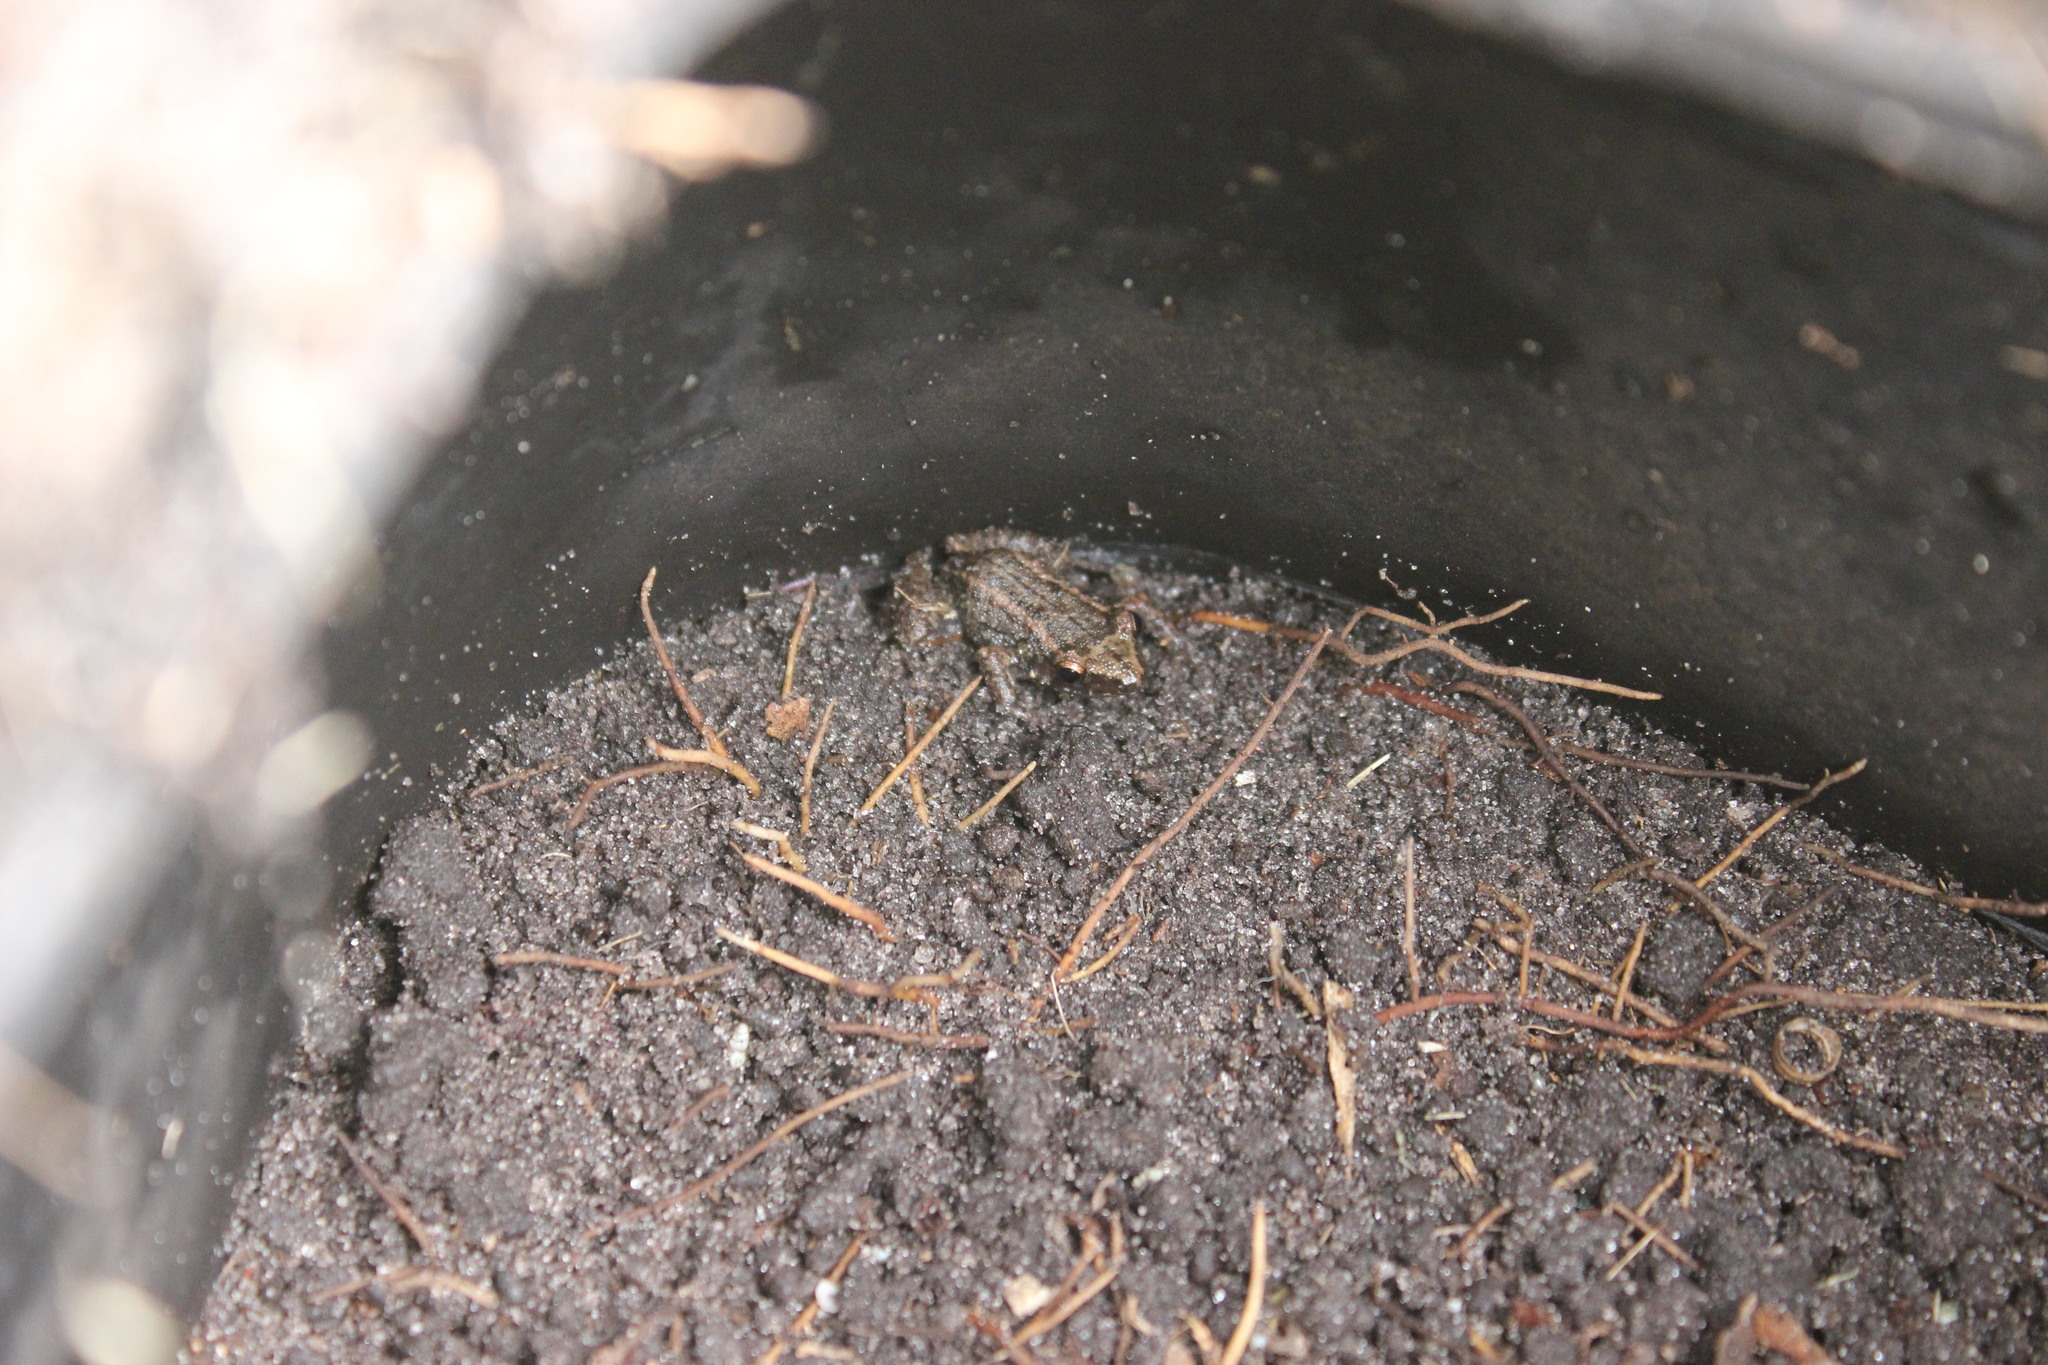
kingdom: Animalia
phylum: Chordata
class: Amphibia
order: Anura
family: Eleutherodactylidae
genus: Eleutherodactylus
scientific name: Eleutherodactylus planirostris
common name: Greenhouse frog
